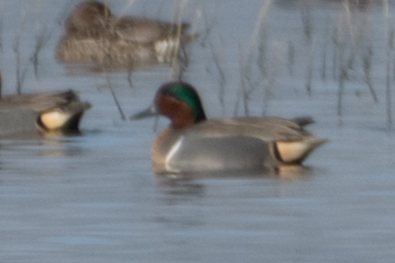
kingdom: Animalia
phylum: Chordata
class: Aves
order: Anseriformes
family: Anatidae
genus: Anas
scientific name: Anas crecca
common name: Eurasian teal
